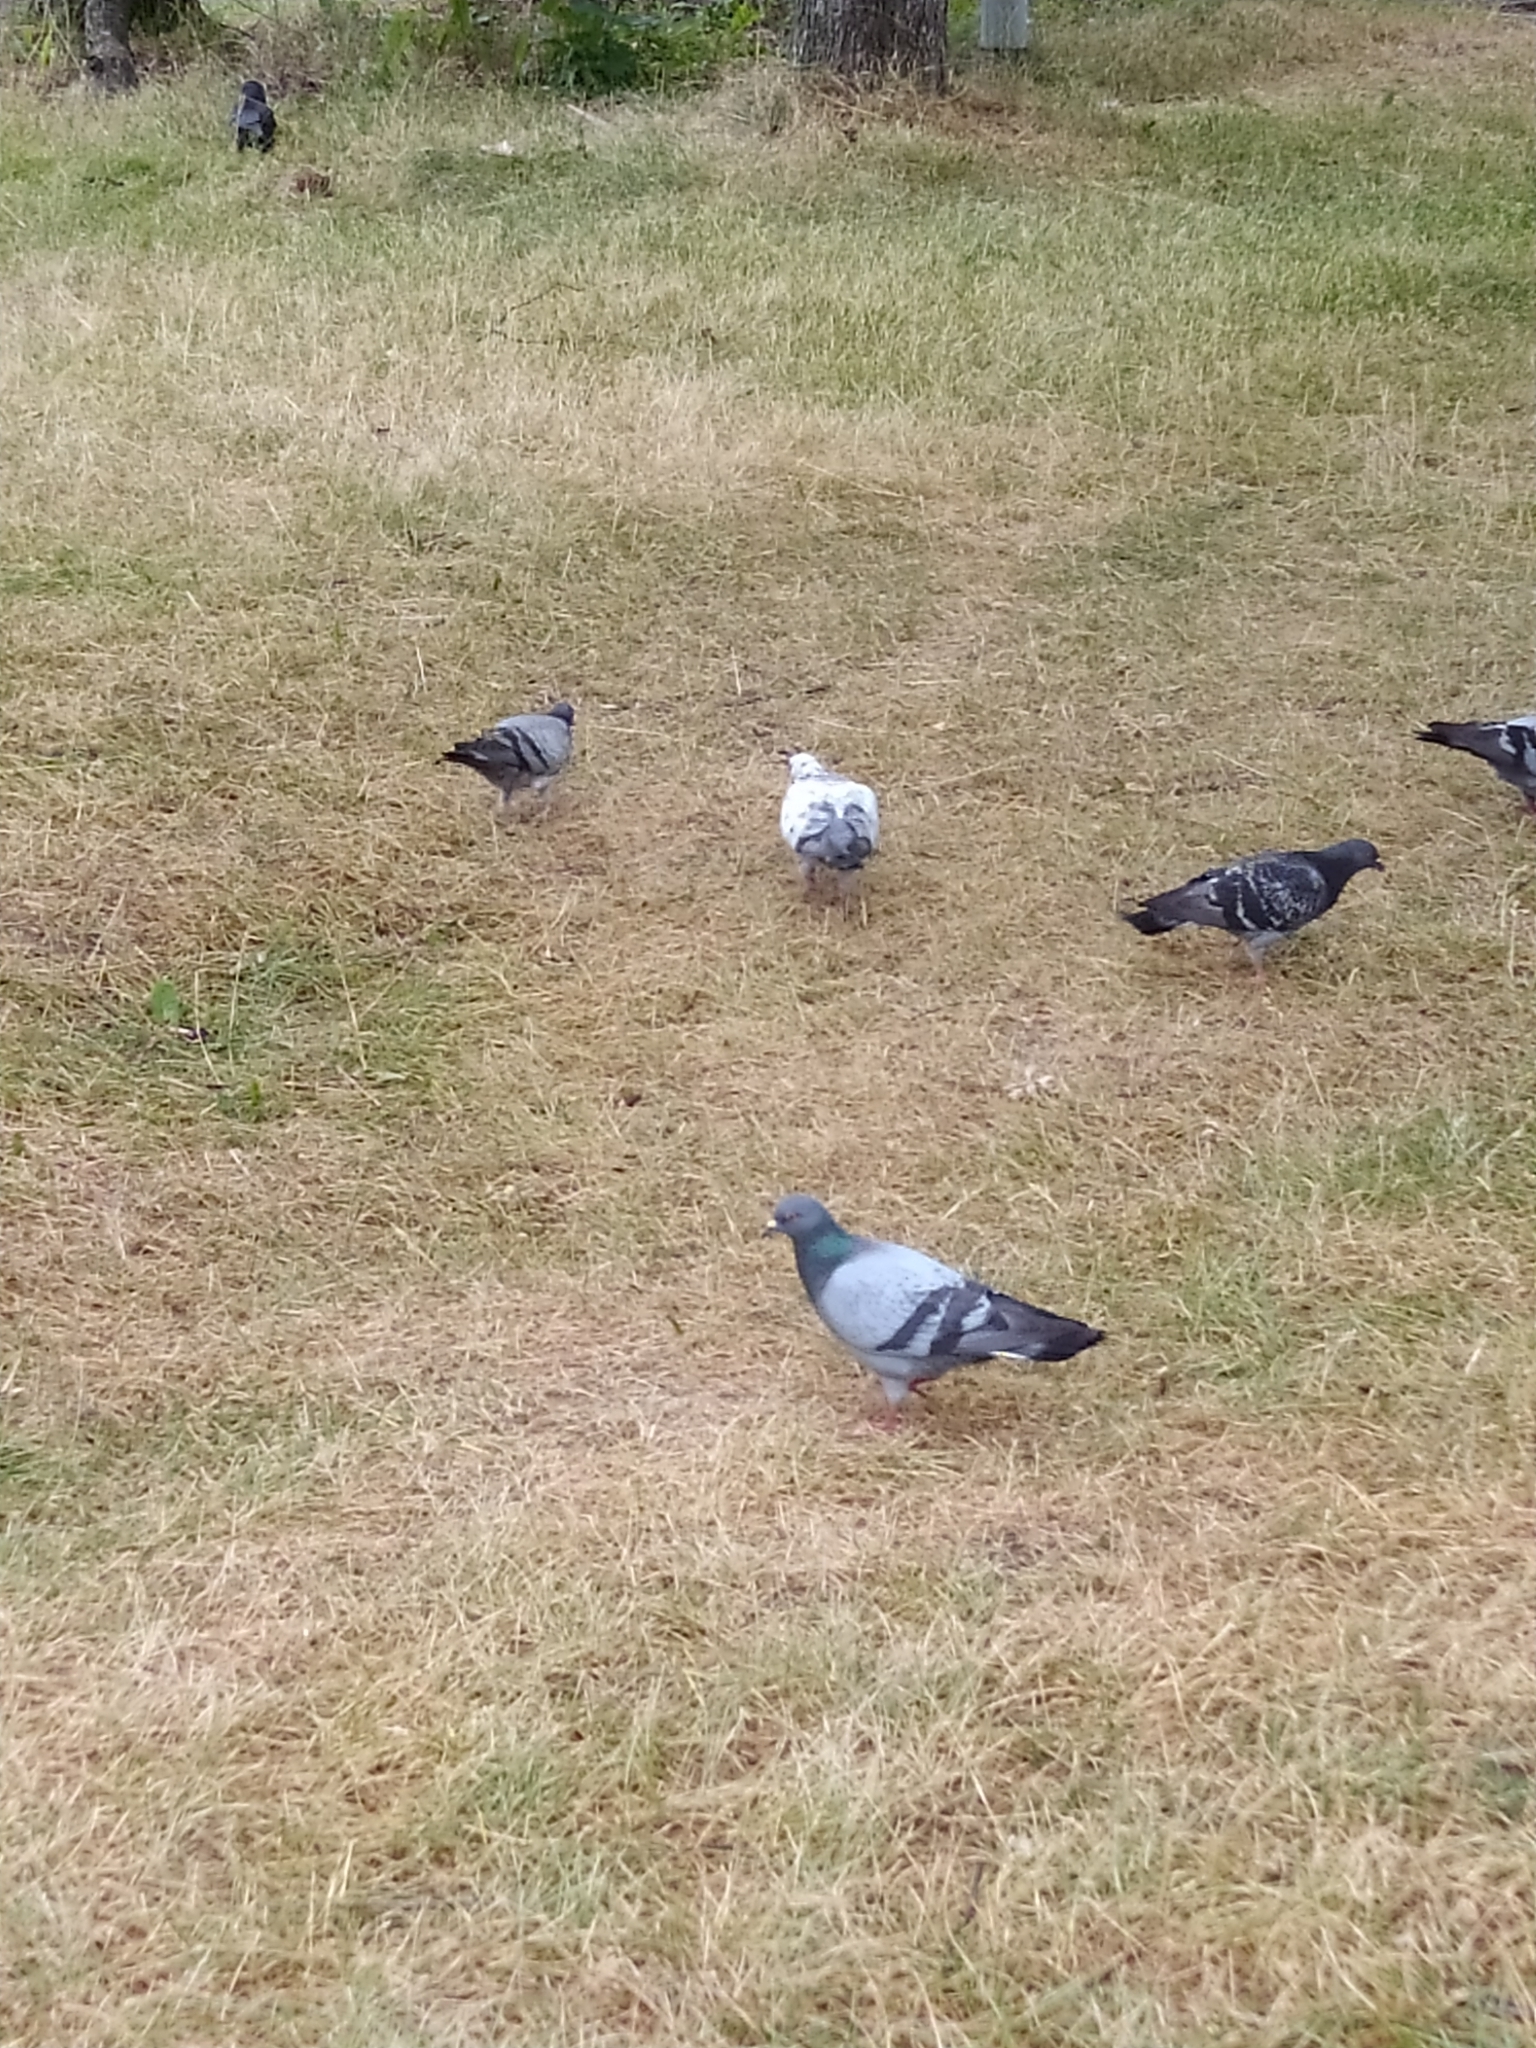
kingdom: Animalia
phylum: Chordata
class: Aves
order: Columbiformes
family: Columbidae
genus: Columba
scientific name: Columba livia
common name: Rock pigeon
